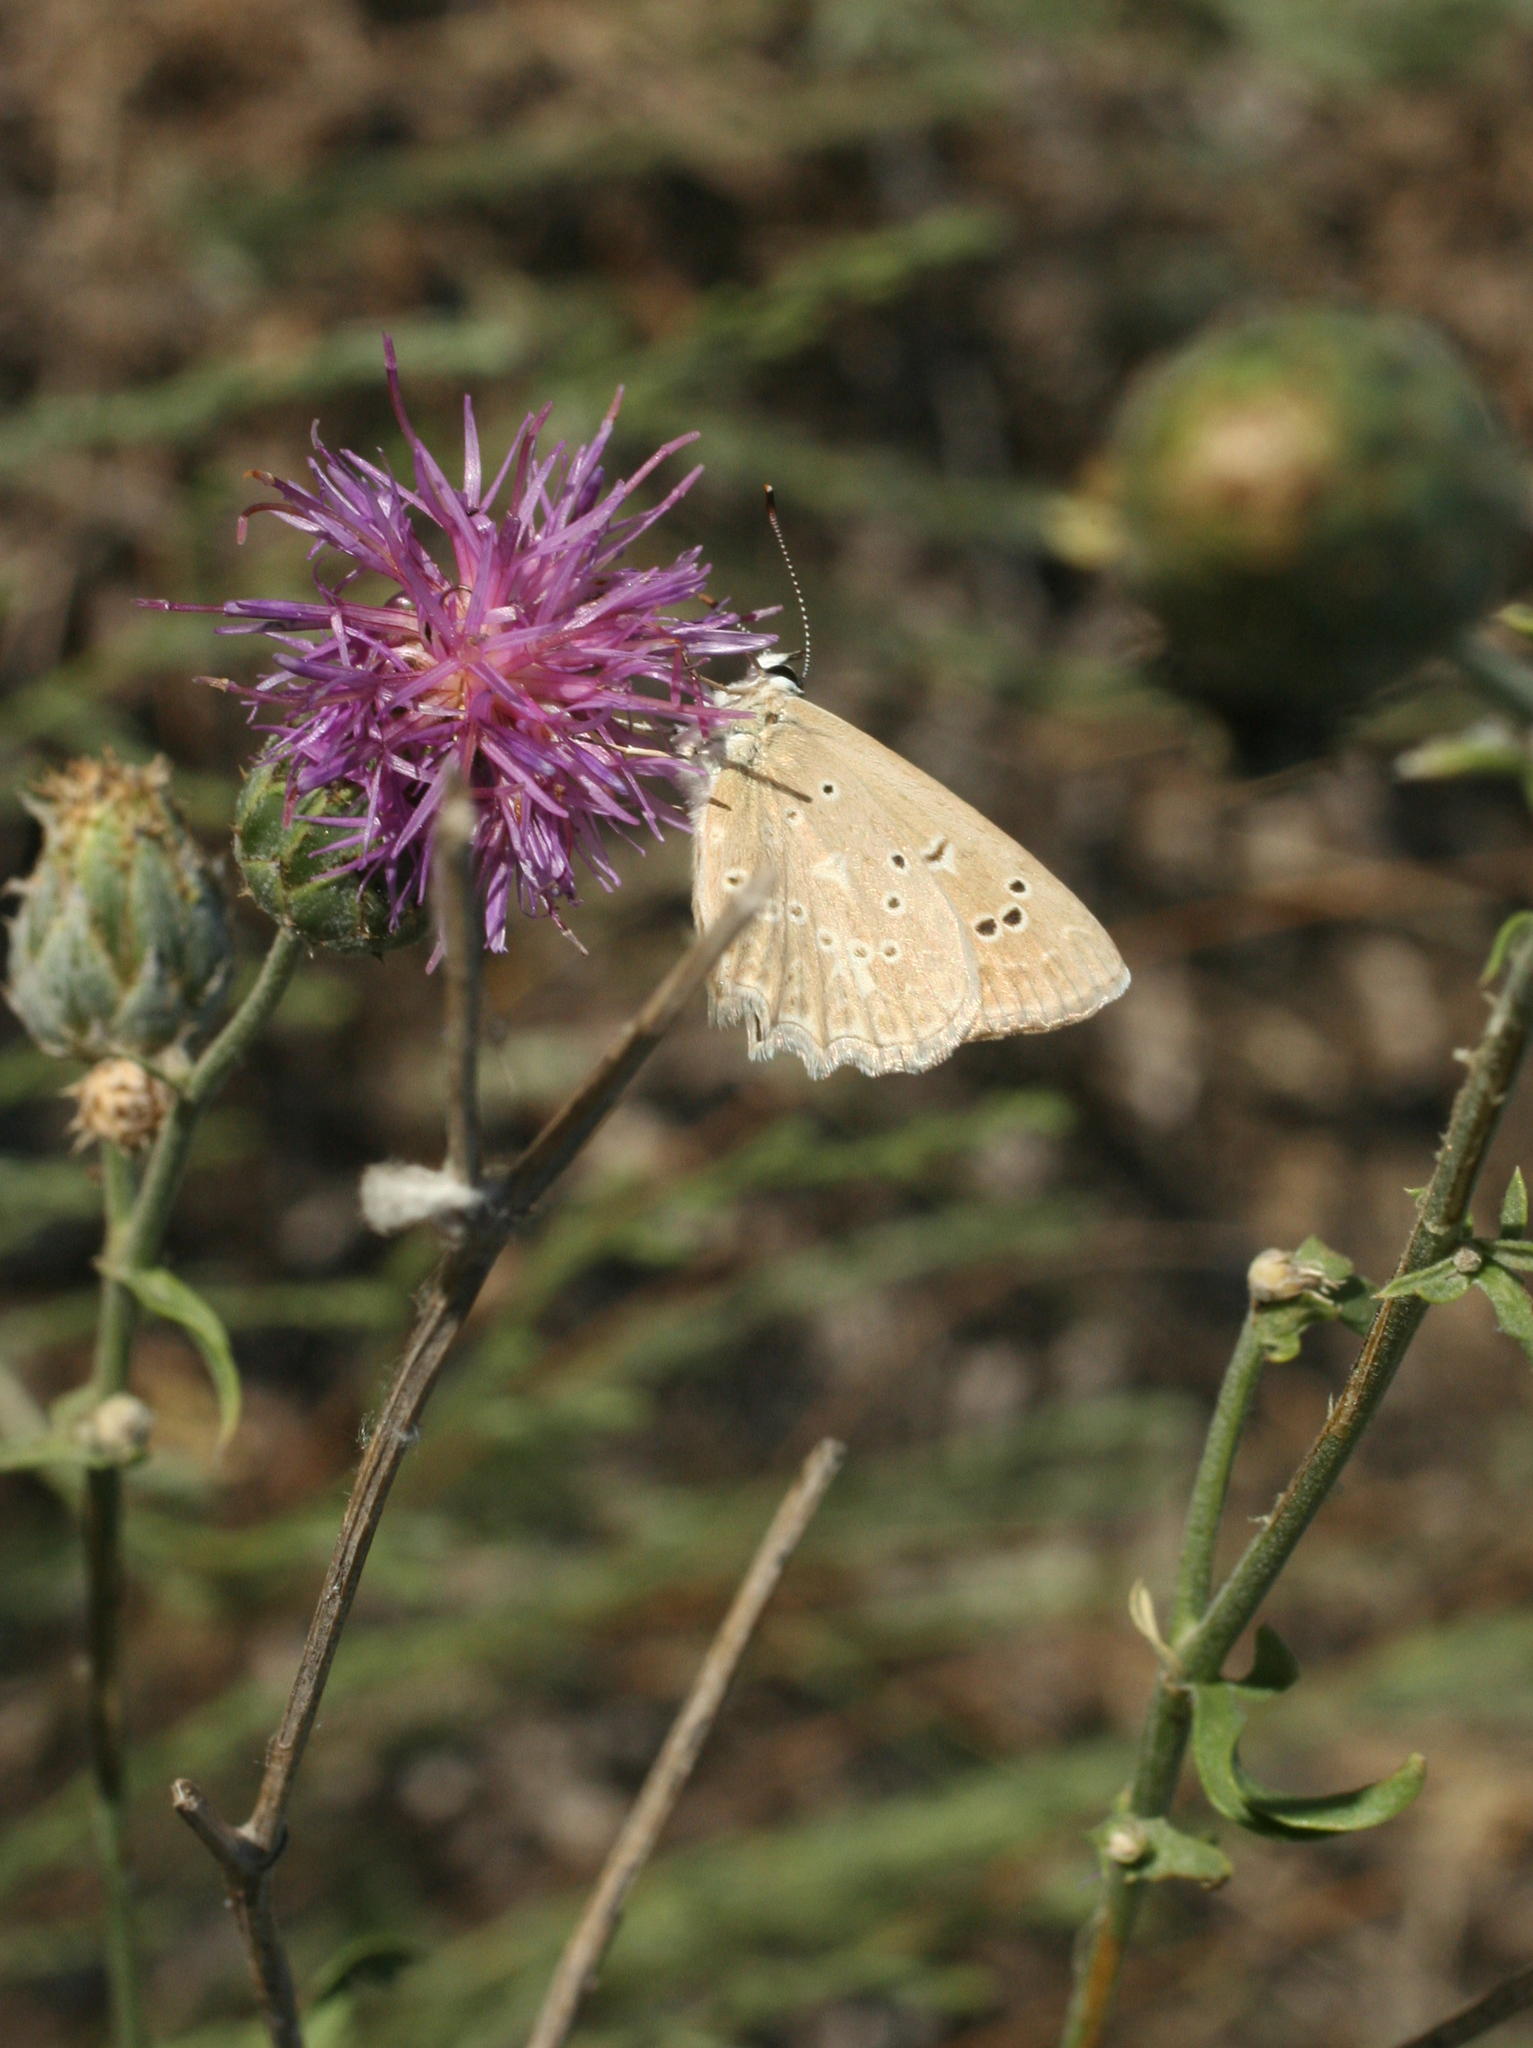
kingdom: Animalia
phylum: Arthropoda
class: Insecta
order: Lepidoptera
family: Lycaenidae
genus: Polyommatus
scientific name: Polyommatus daphnis
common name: Meleager's blue
